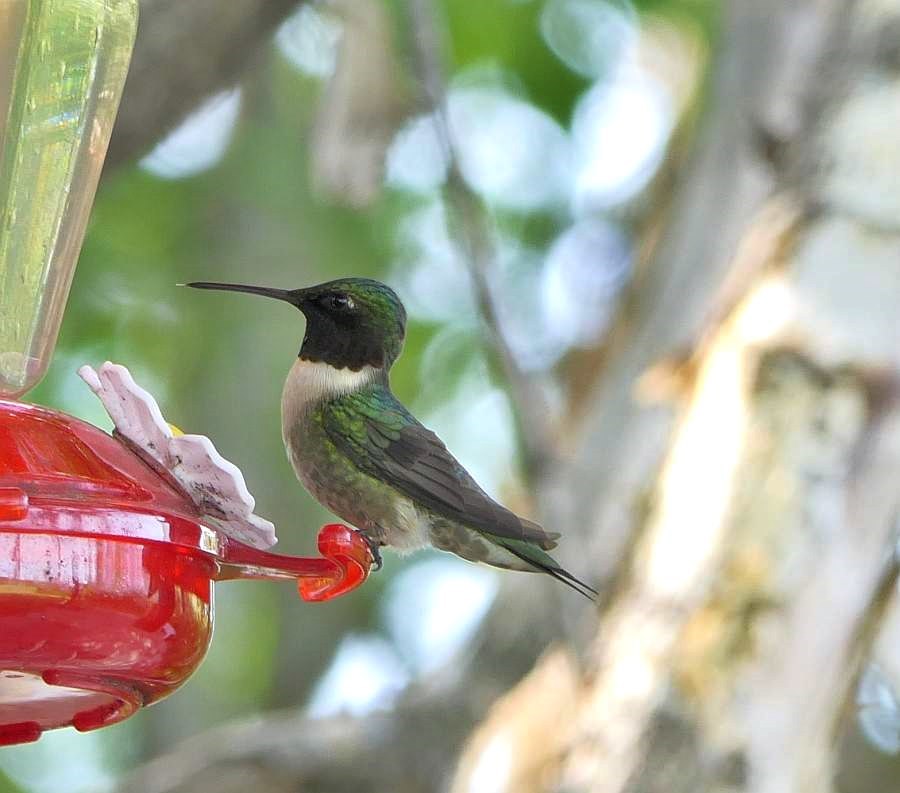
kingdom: Animalia
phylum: Chordata
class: Aves
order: Apodiformes
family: Trochilidae
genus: Archilochus
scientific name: Archilochus colubris
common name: Ruby-throated hummingbird
